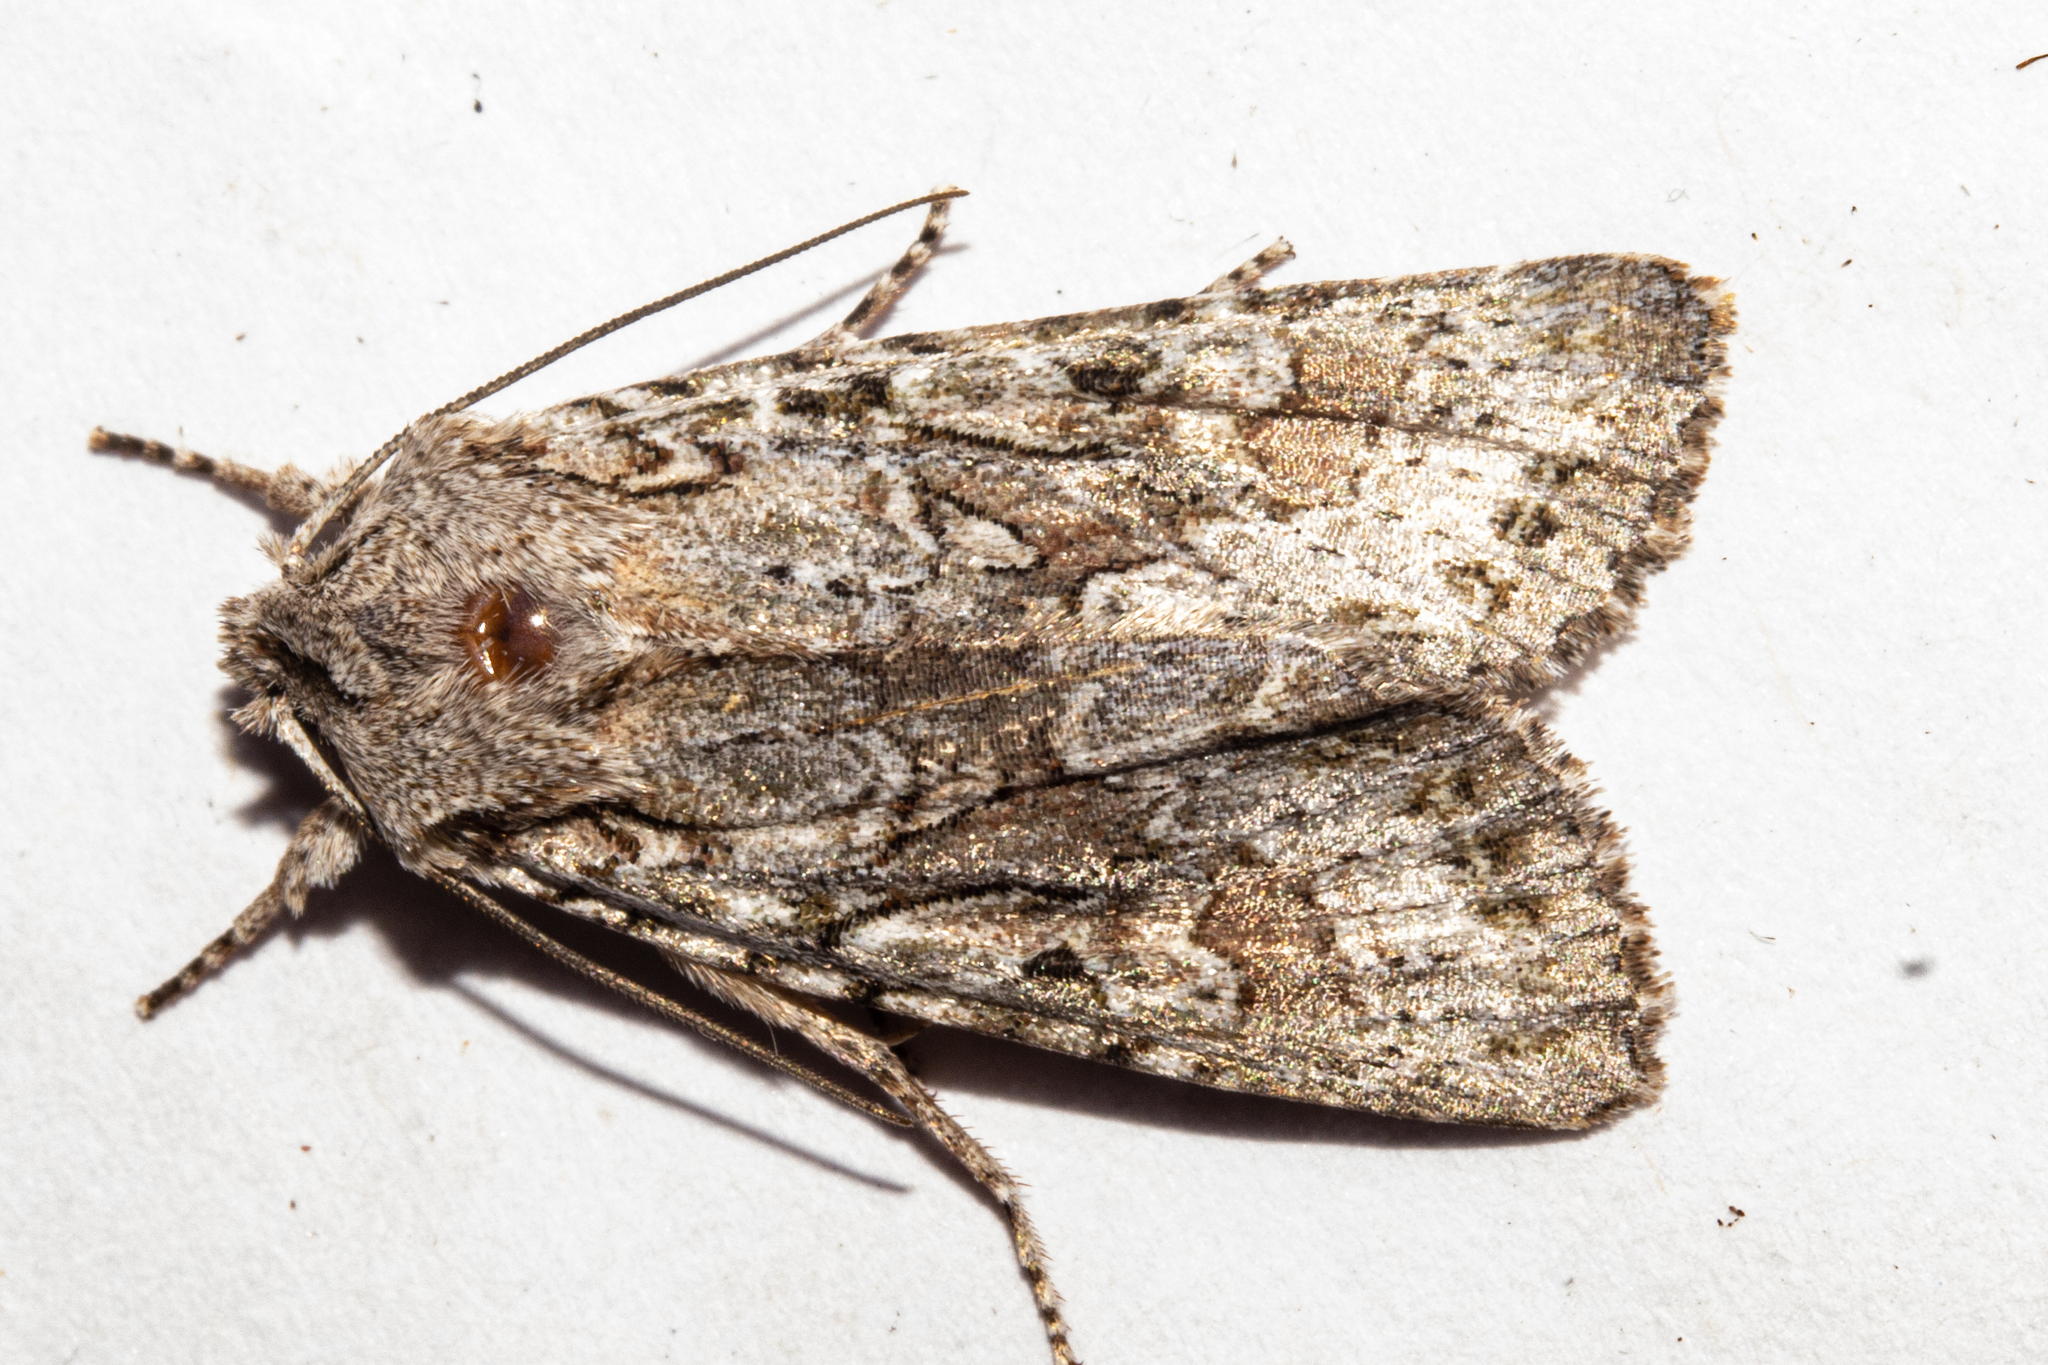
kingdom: Animalia
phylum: Arthropoda
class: Insecta
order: Lepidoptera
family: Noctuidae
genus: Ichneutica
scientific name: Ichneutica mutans
